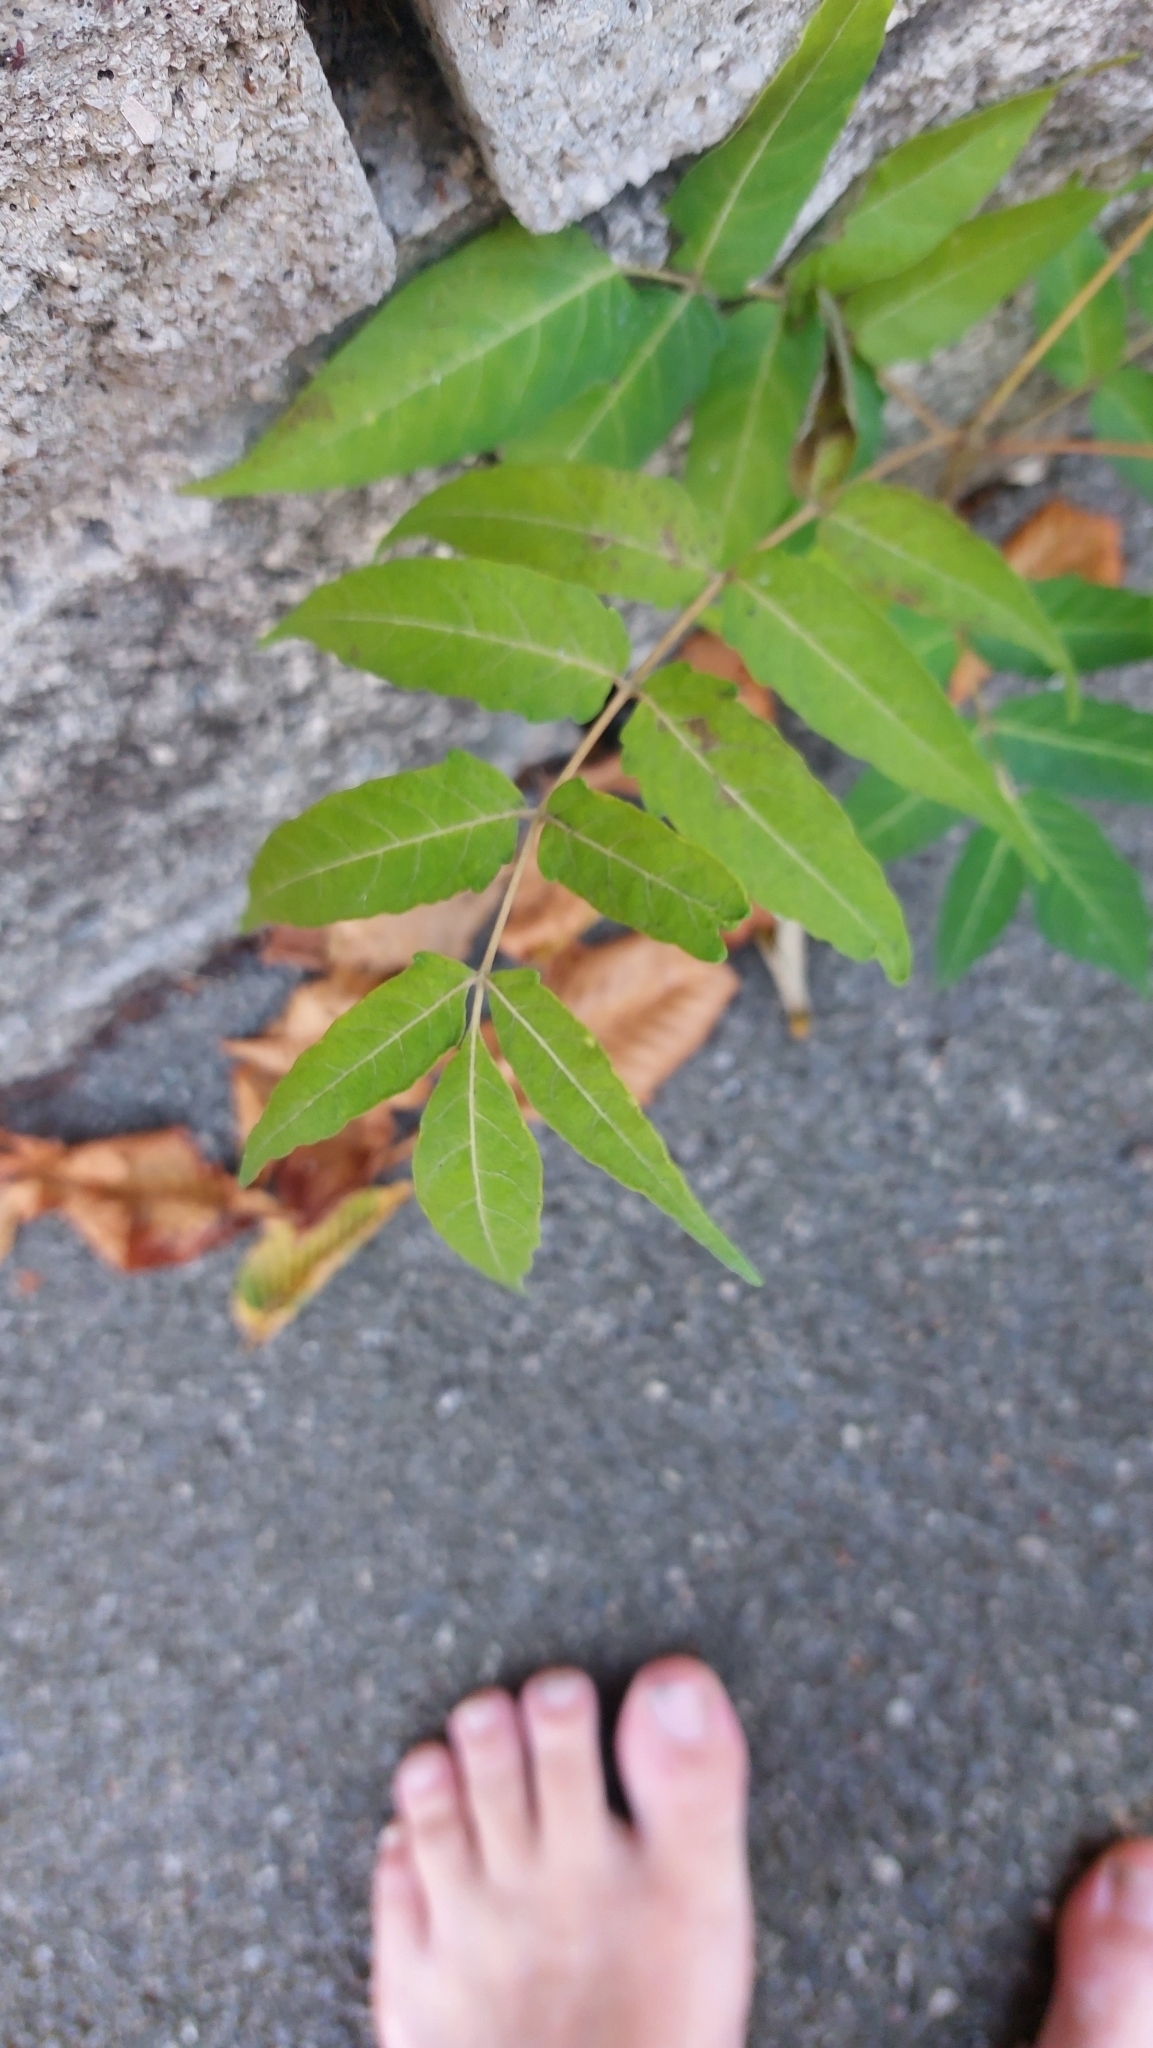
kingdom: Plantae
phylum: Tracheophyta
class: Magnoliopsida
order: Sapindales
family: Simaroubaceae
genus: Ailanthus
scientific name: Ailanthus altissima
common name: Tree-of-heaven
